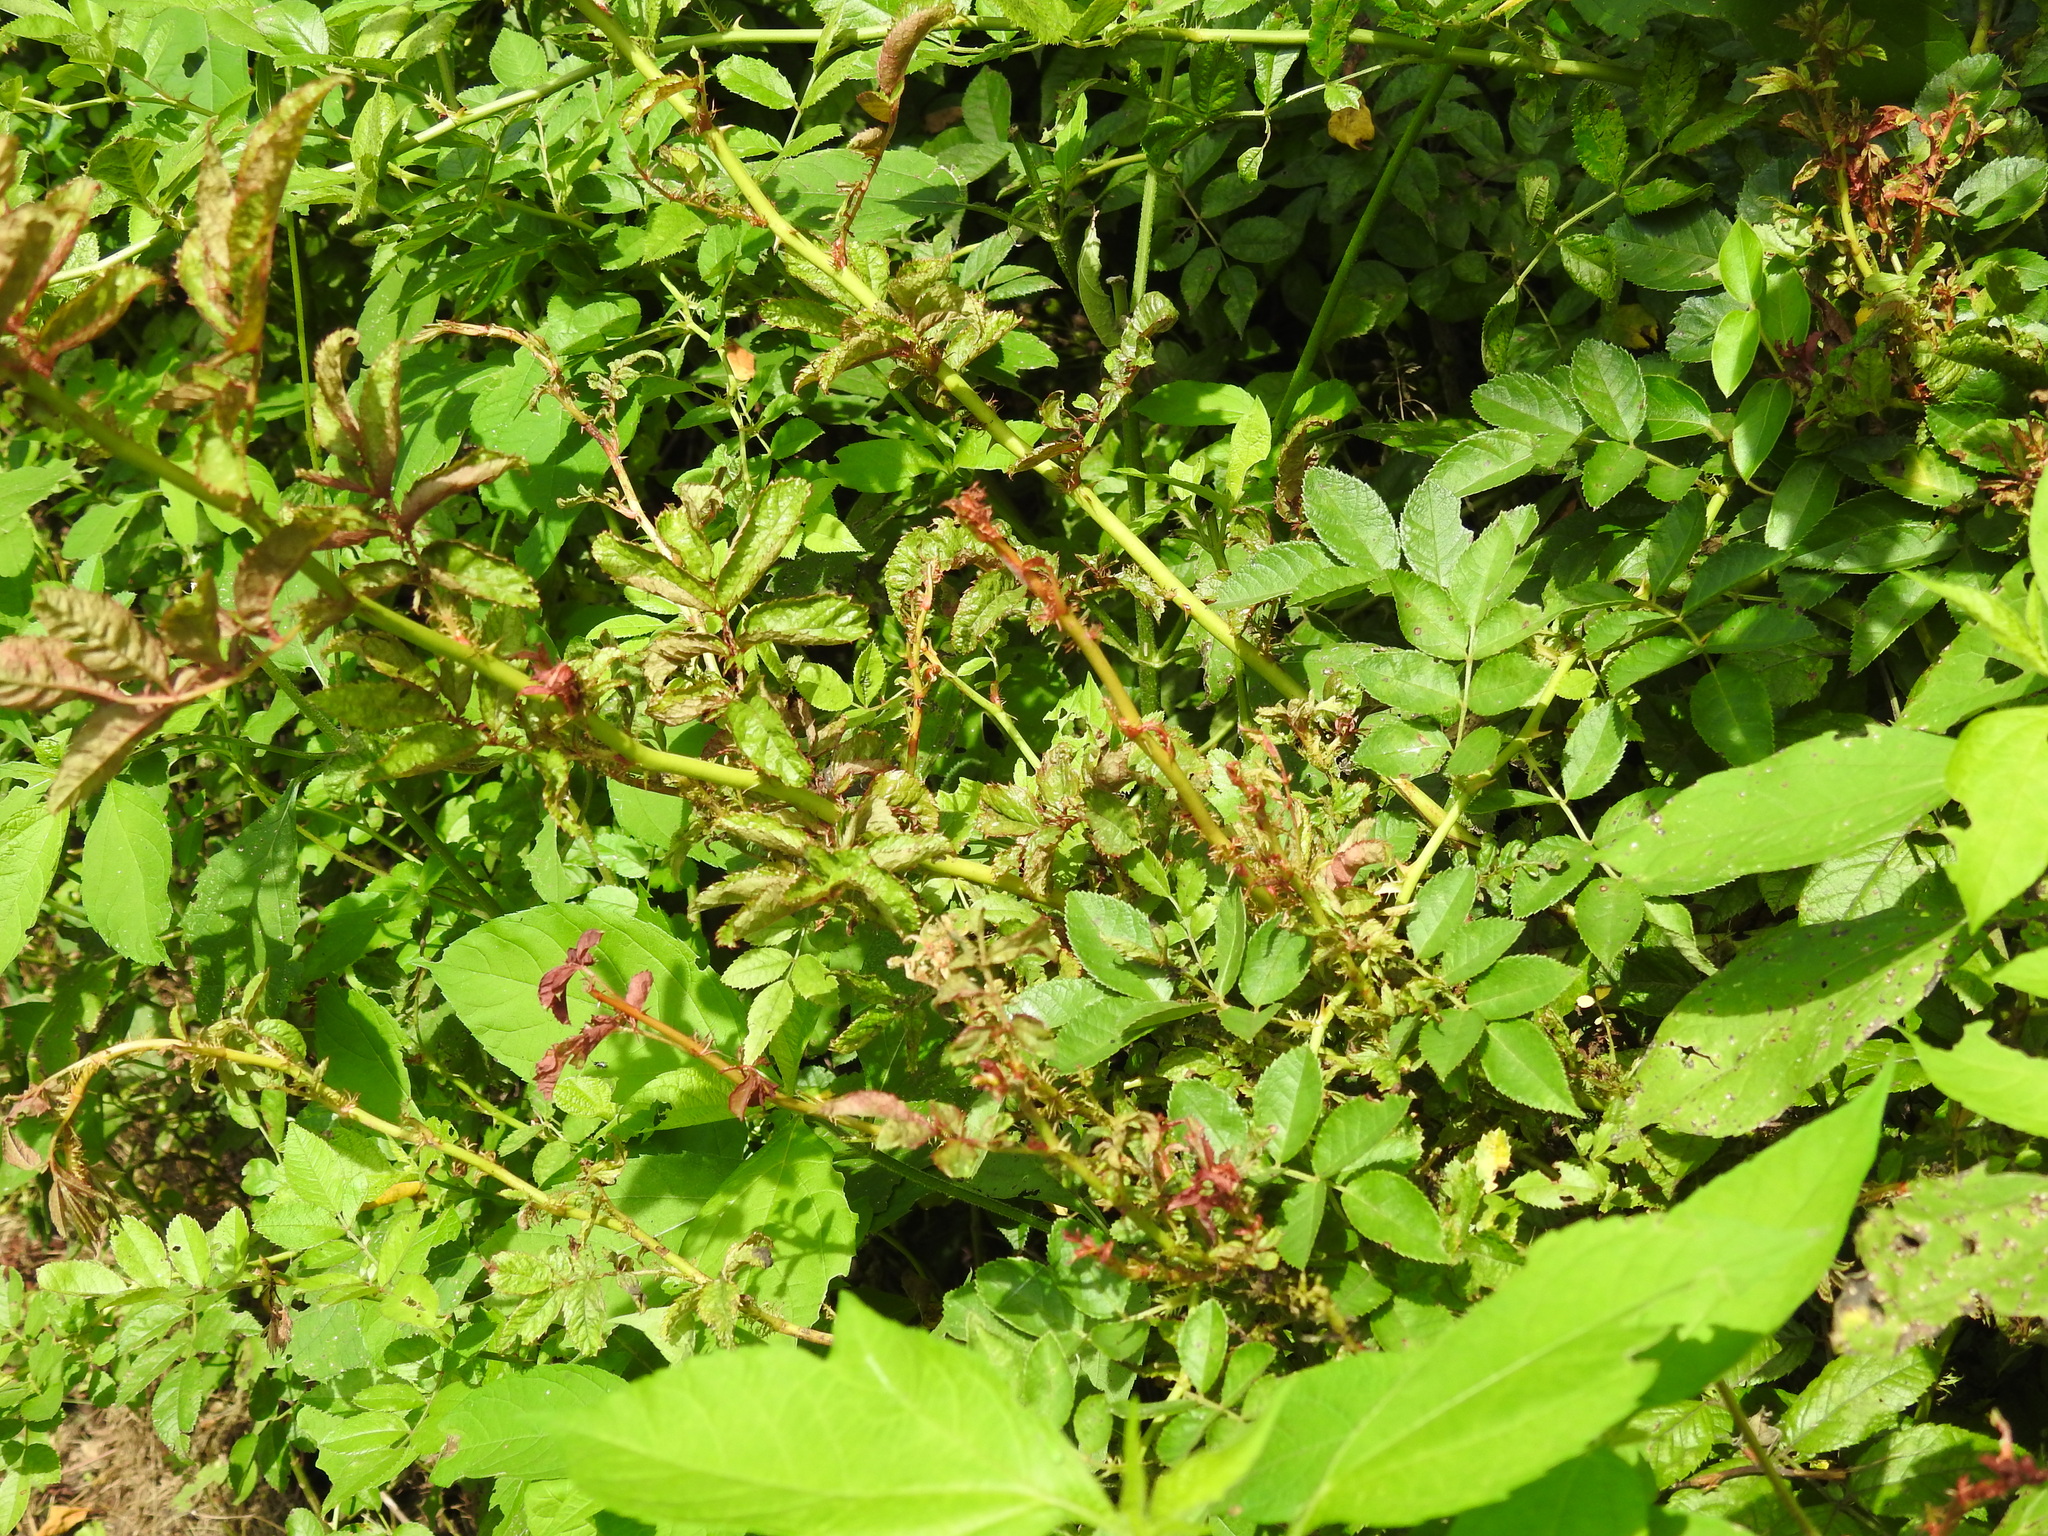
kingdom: Viruses
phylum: Negarnaviricota
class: Ellioviricetes
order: Bunyavirales
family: Fimoviridae
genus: Emaravirus
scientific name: Emaravirus rosae
